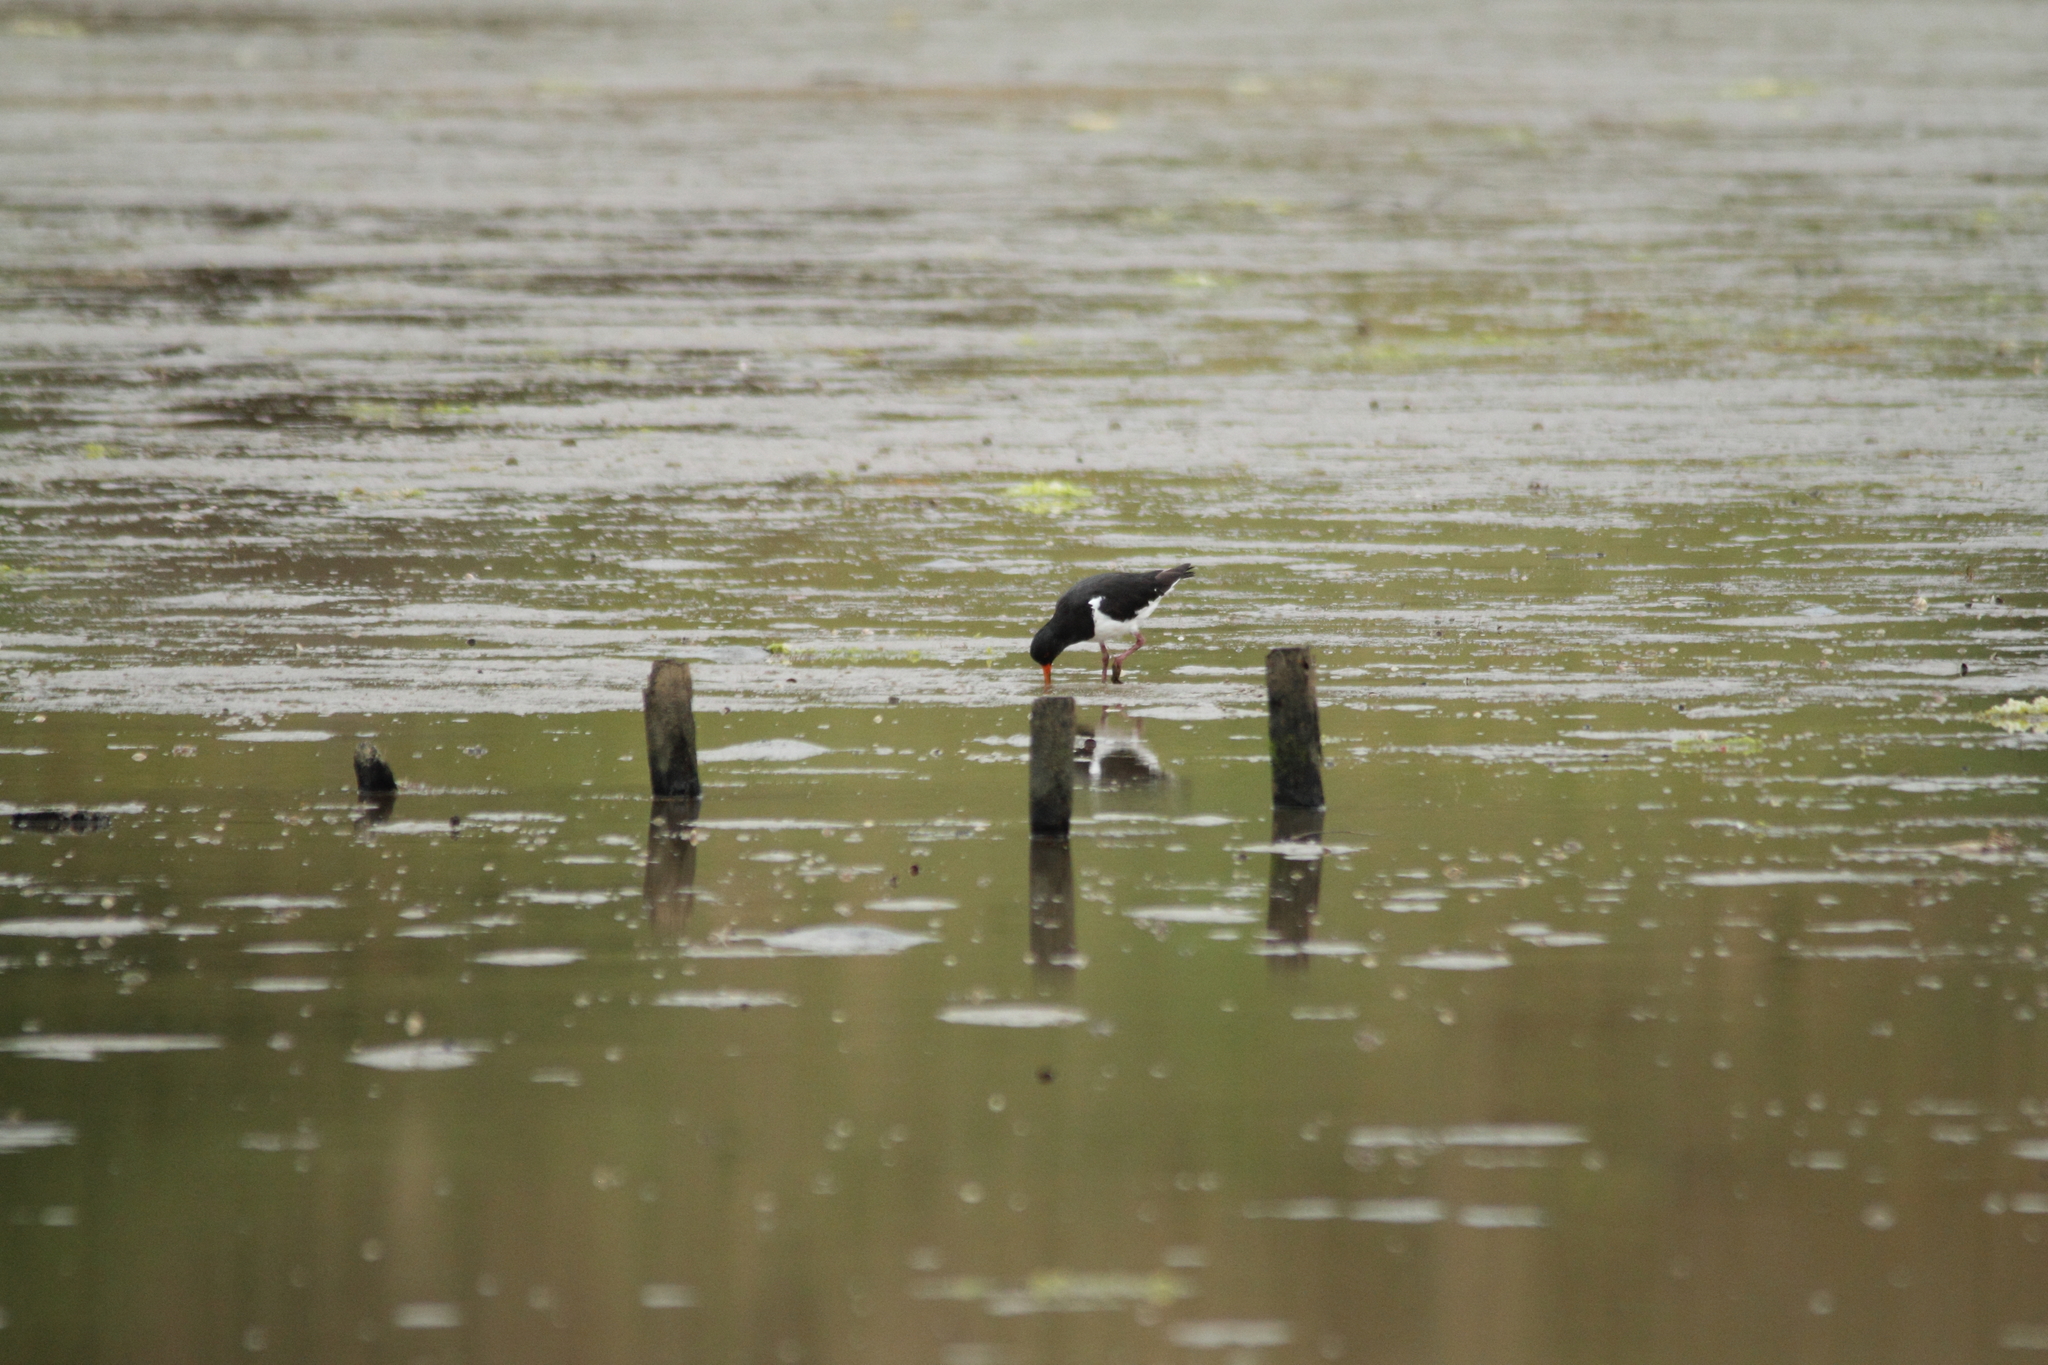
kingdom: Animalia
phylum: Chordata
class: Aves
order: Charadriiformes
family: Haematopodidae
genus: Haematopus
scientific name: Haematopus finschi
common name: South island oystercatcher
